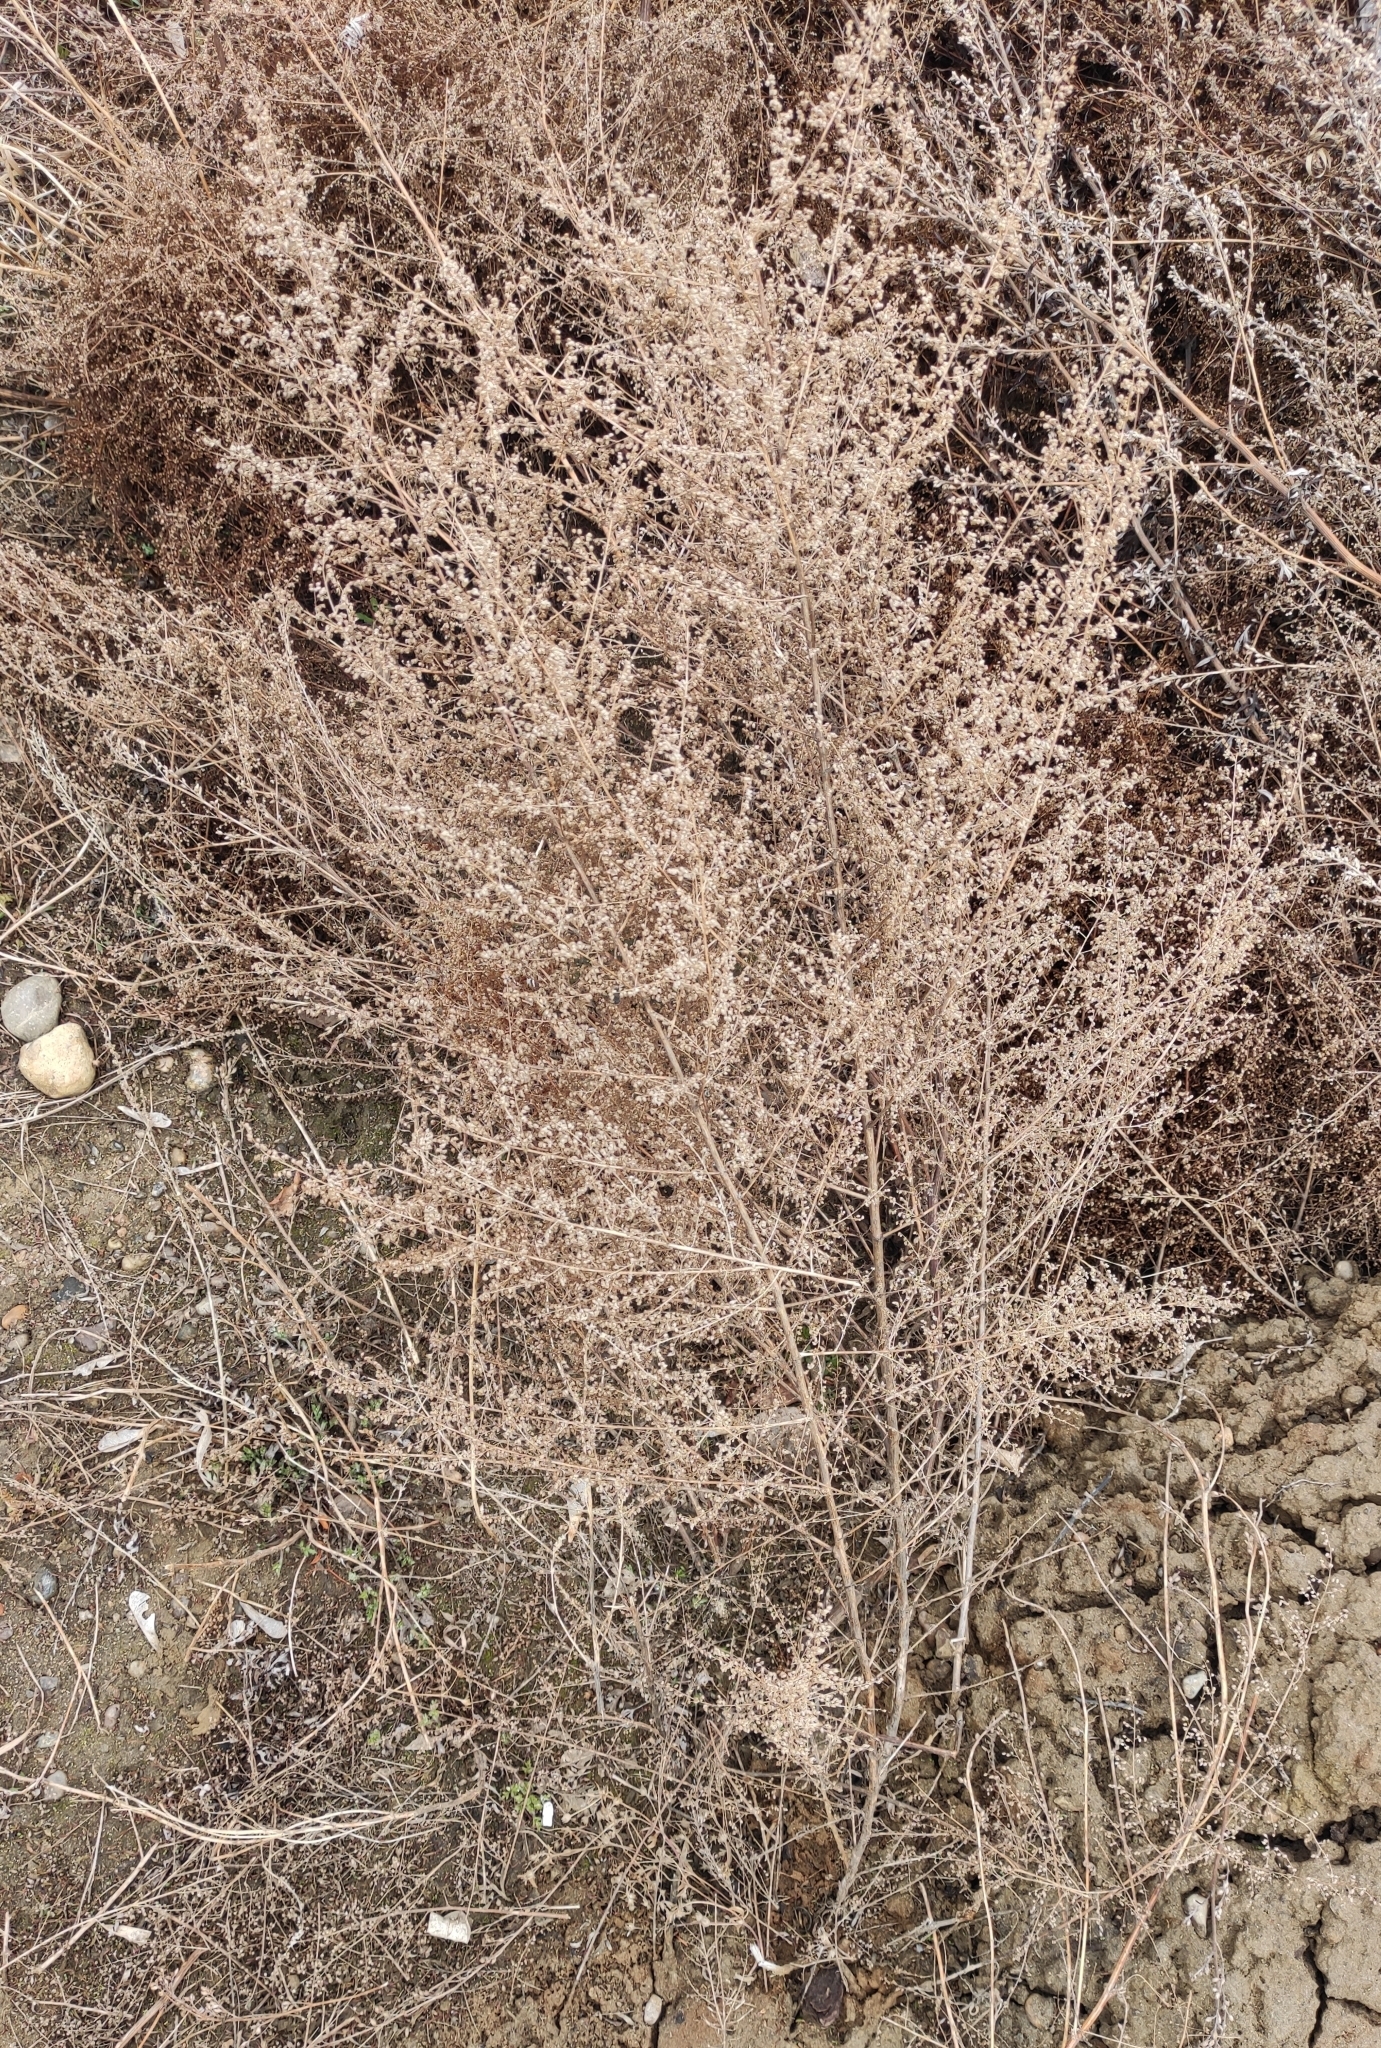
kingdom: Plantae
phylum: Tracheophyta
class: Magnoliopsida
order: Asterales
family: Asteraceae
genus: Artemisia
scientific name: Artemisia scoparia
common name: Redstem wormwood
